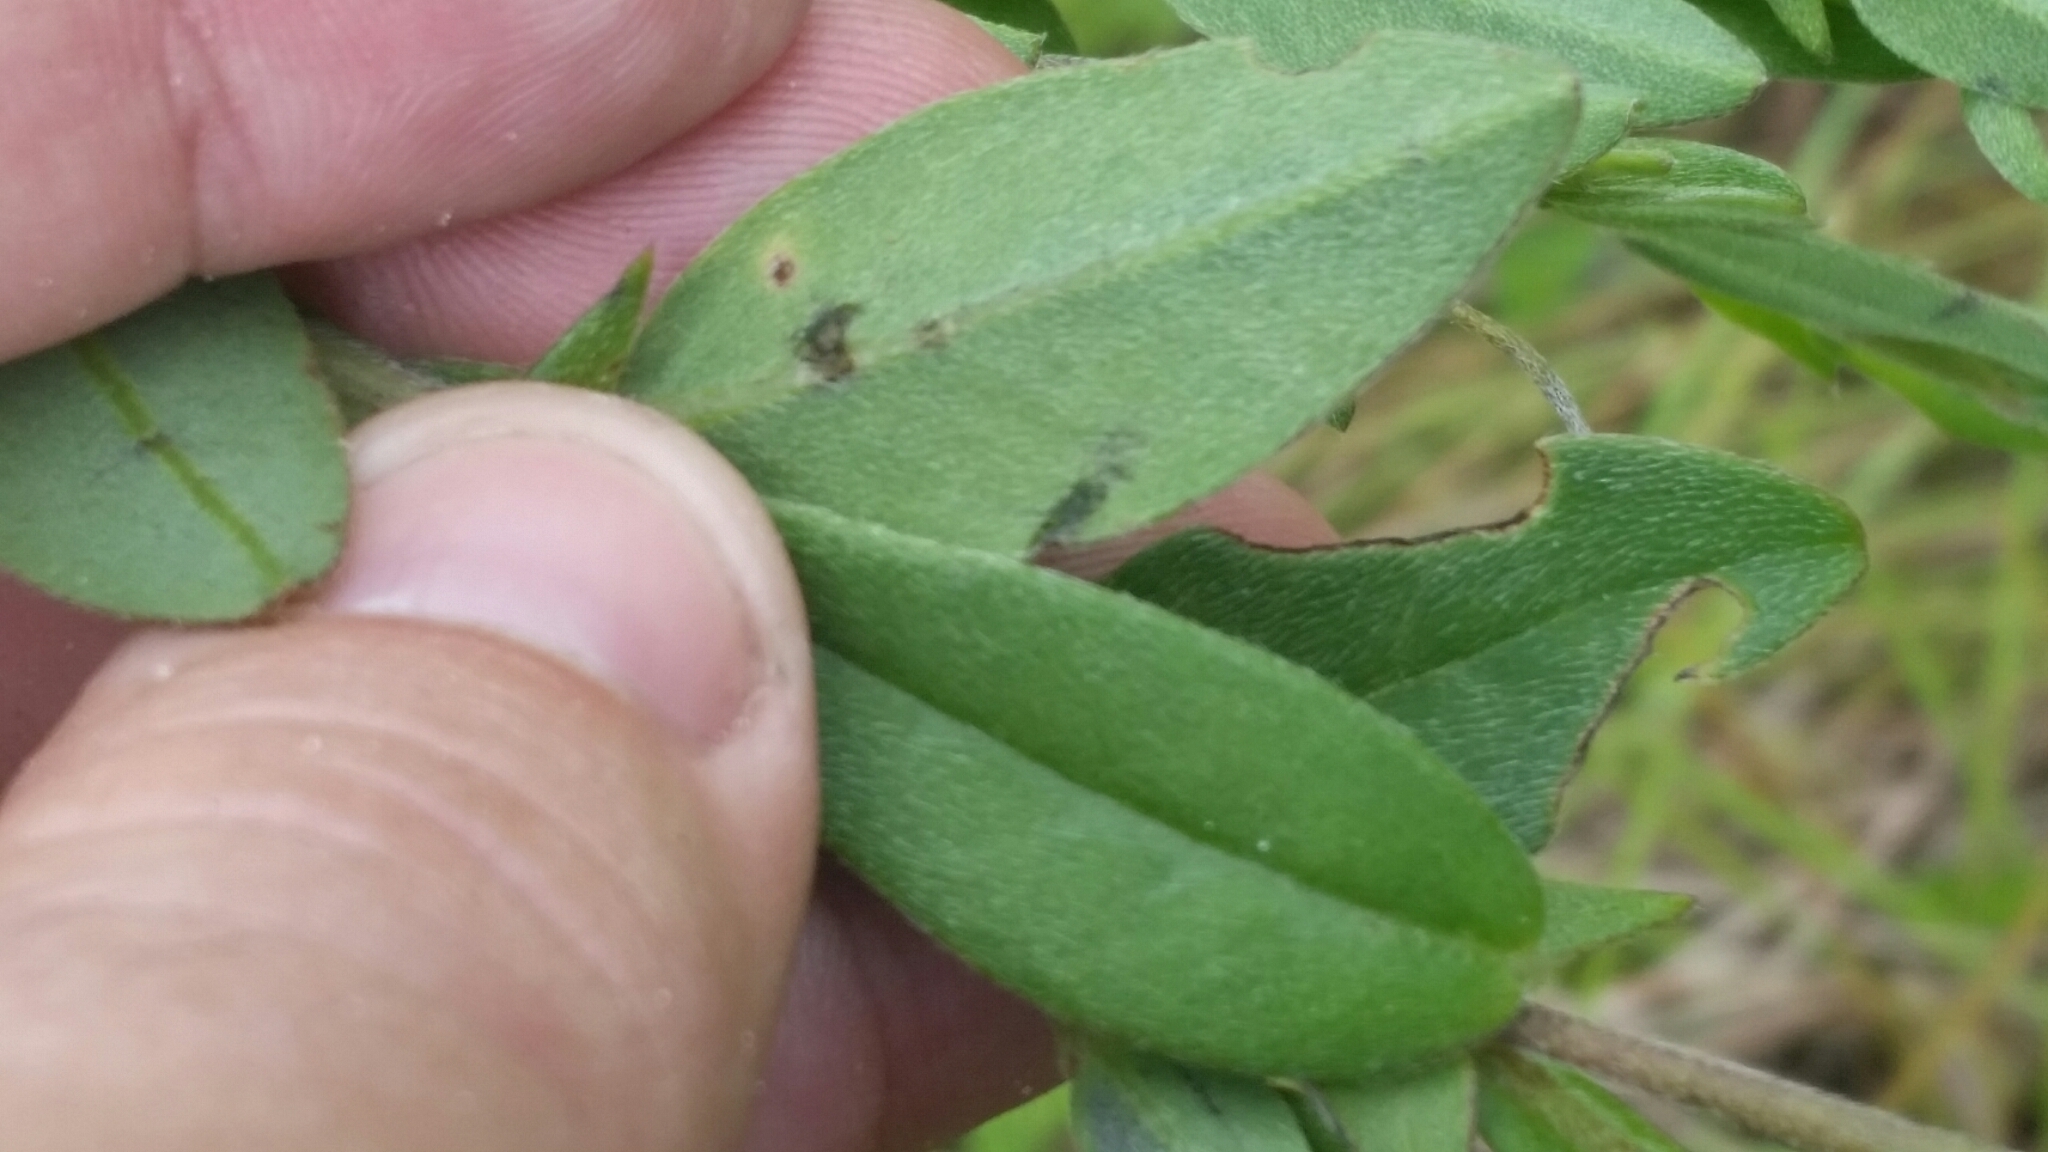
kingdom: Plantae
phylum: Tracheophyta
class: Magnoliopsida
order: Fabales
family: Fabaceae
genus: Crotalaria
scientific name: Crotalaria rotundifolia
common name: Prostrate rattlebox
